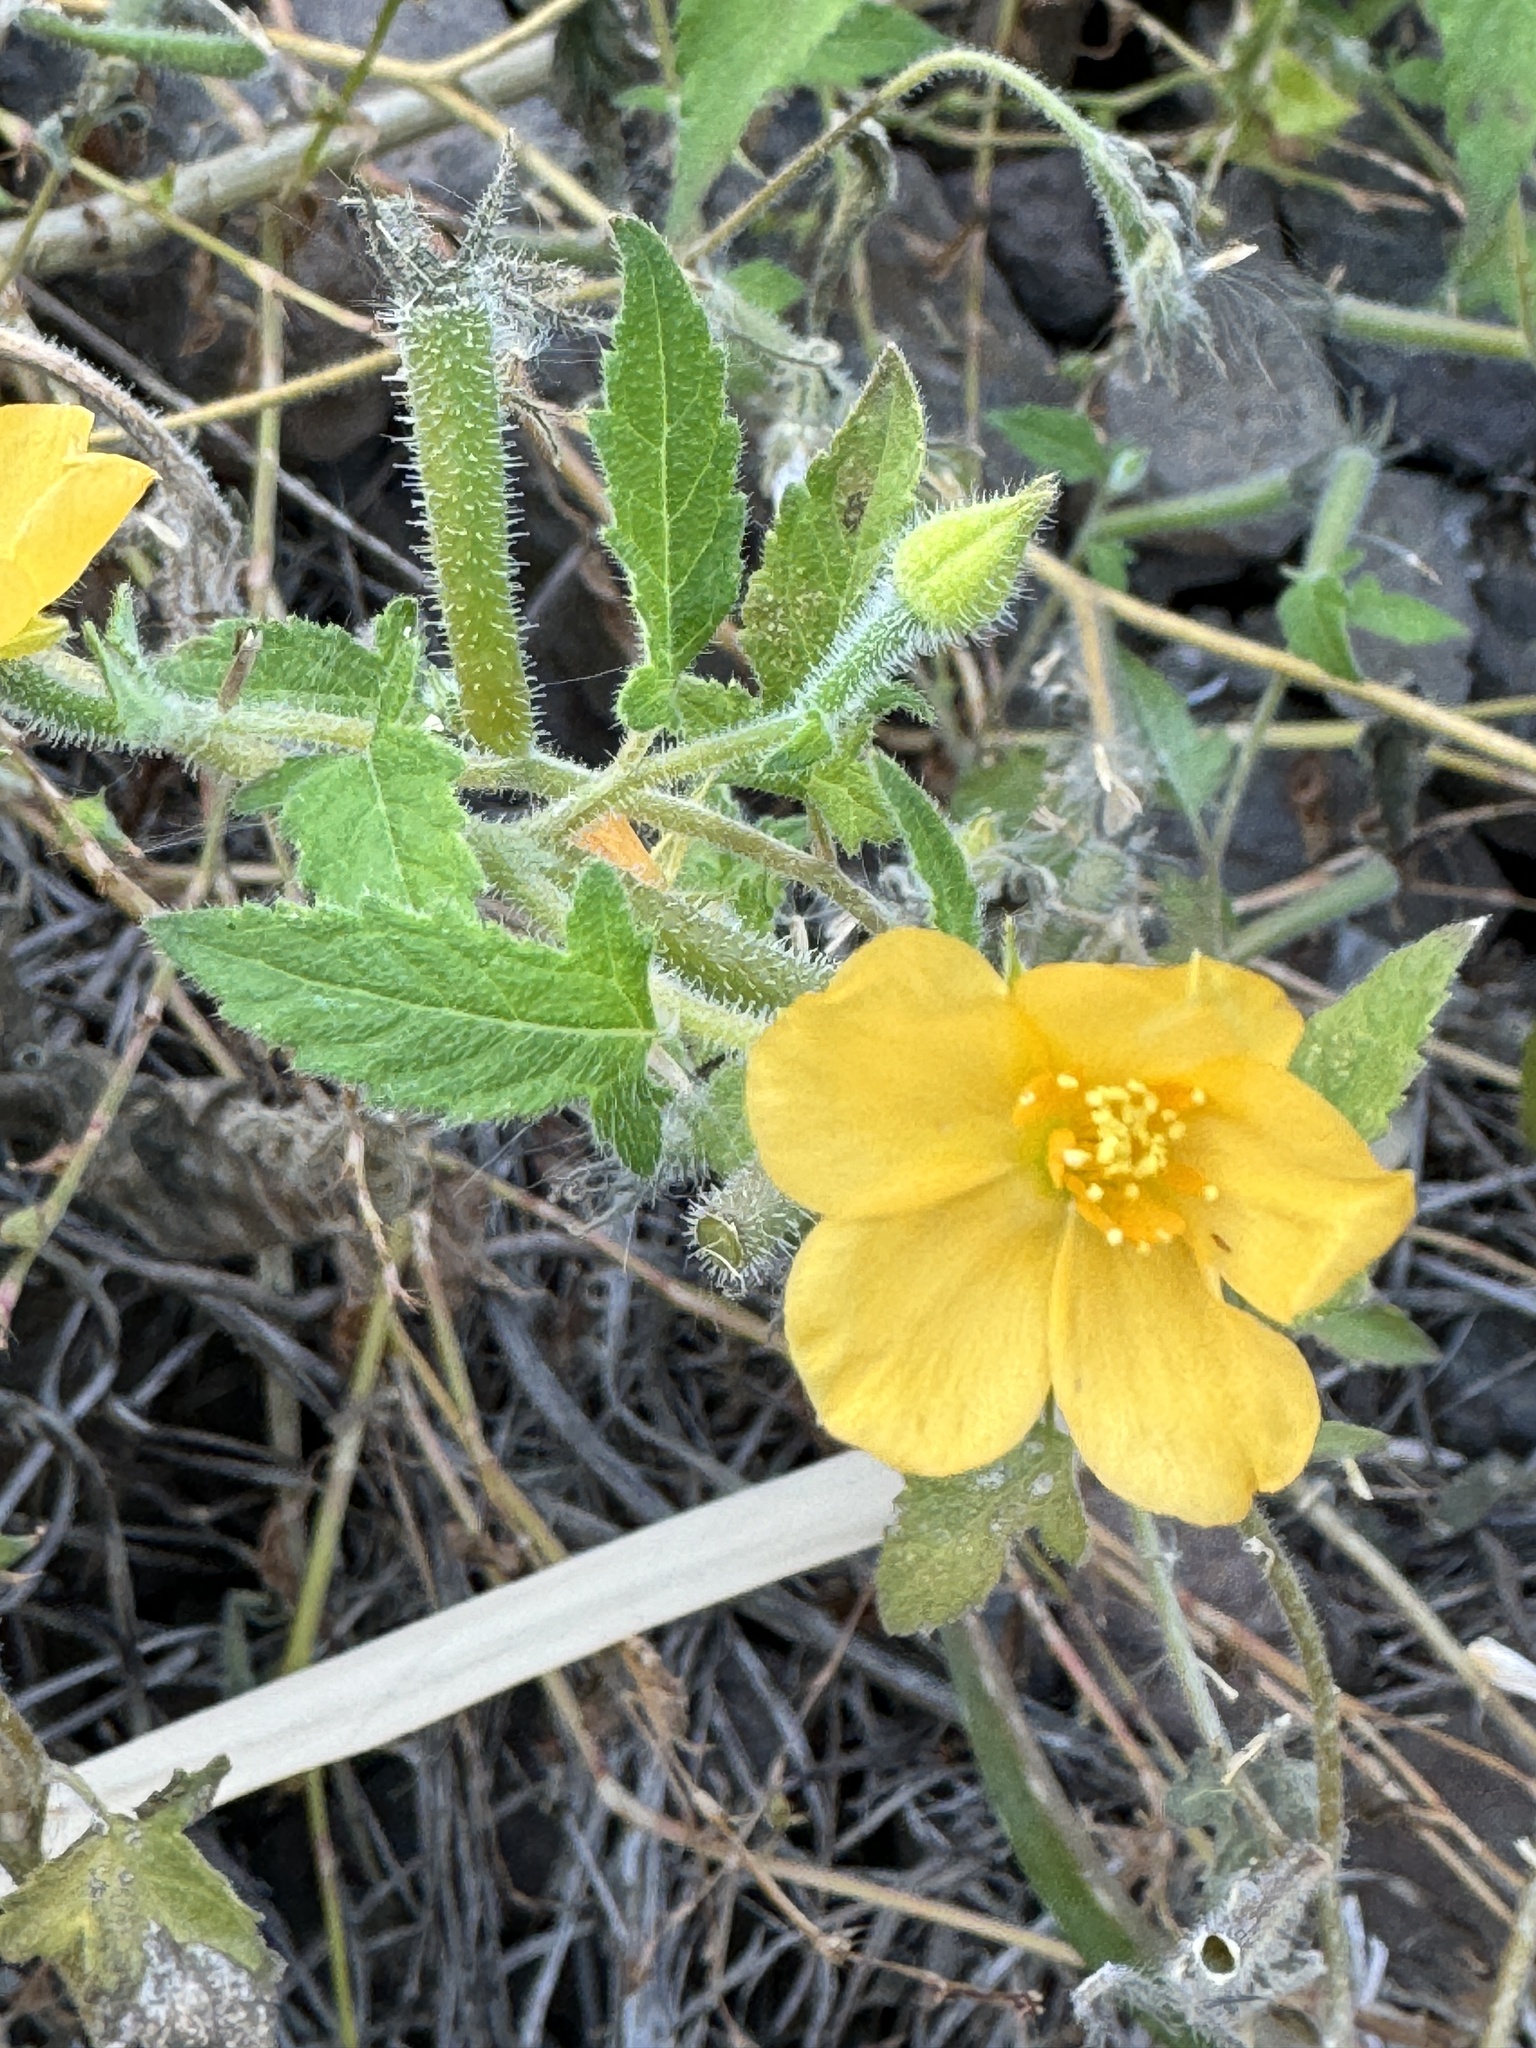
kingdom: Plantae
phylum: Tracheophyta
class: Magnoliopsida
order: Cornales
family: Loasaceae
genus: Mentzelia
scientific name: Mentzelia aspera
